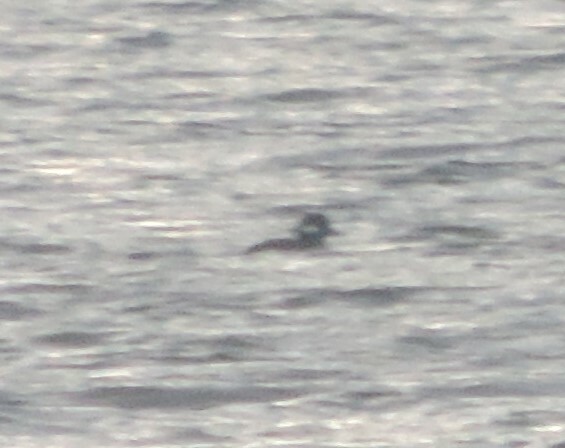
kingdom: Animalia
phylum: Chordata
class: Aves
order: Anseriformes
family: Anatidae
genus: Bucephala
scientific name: Bucephala albeola
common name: Bufflehead
